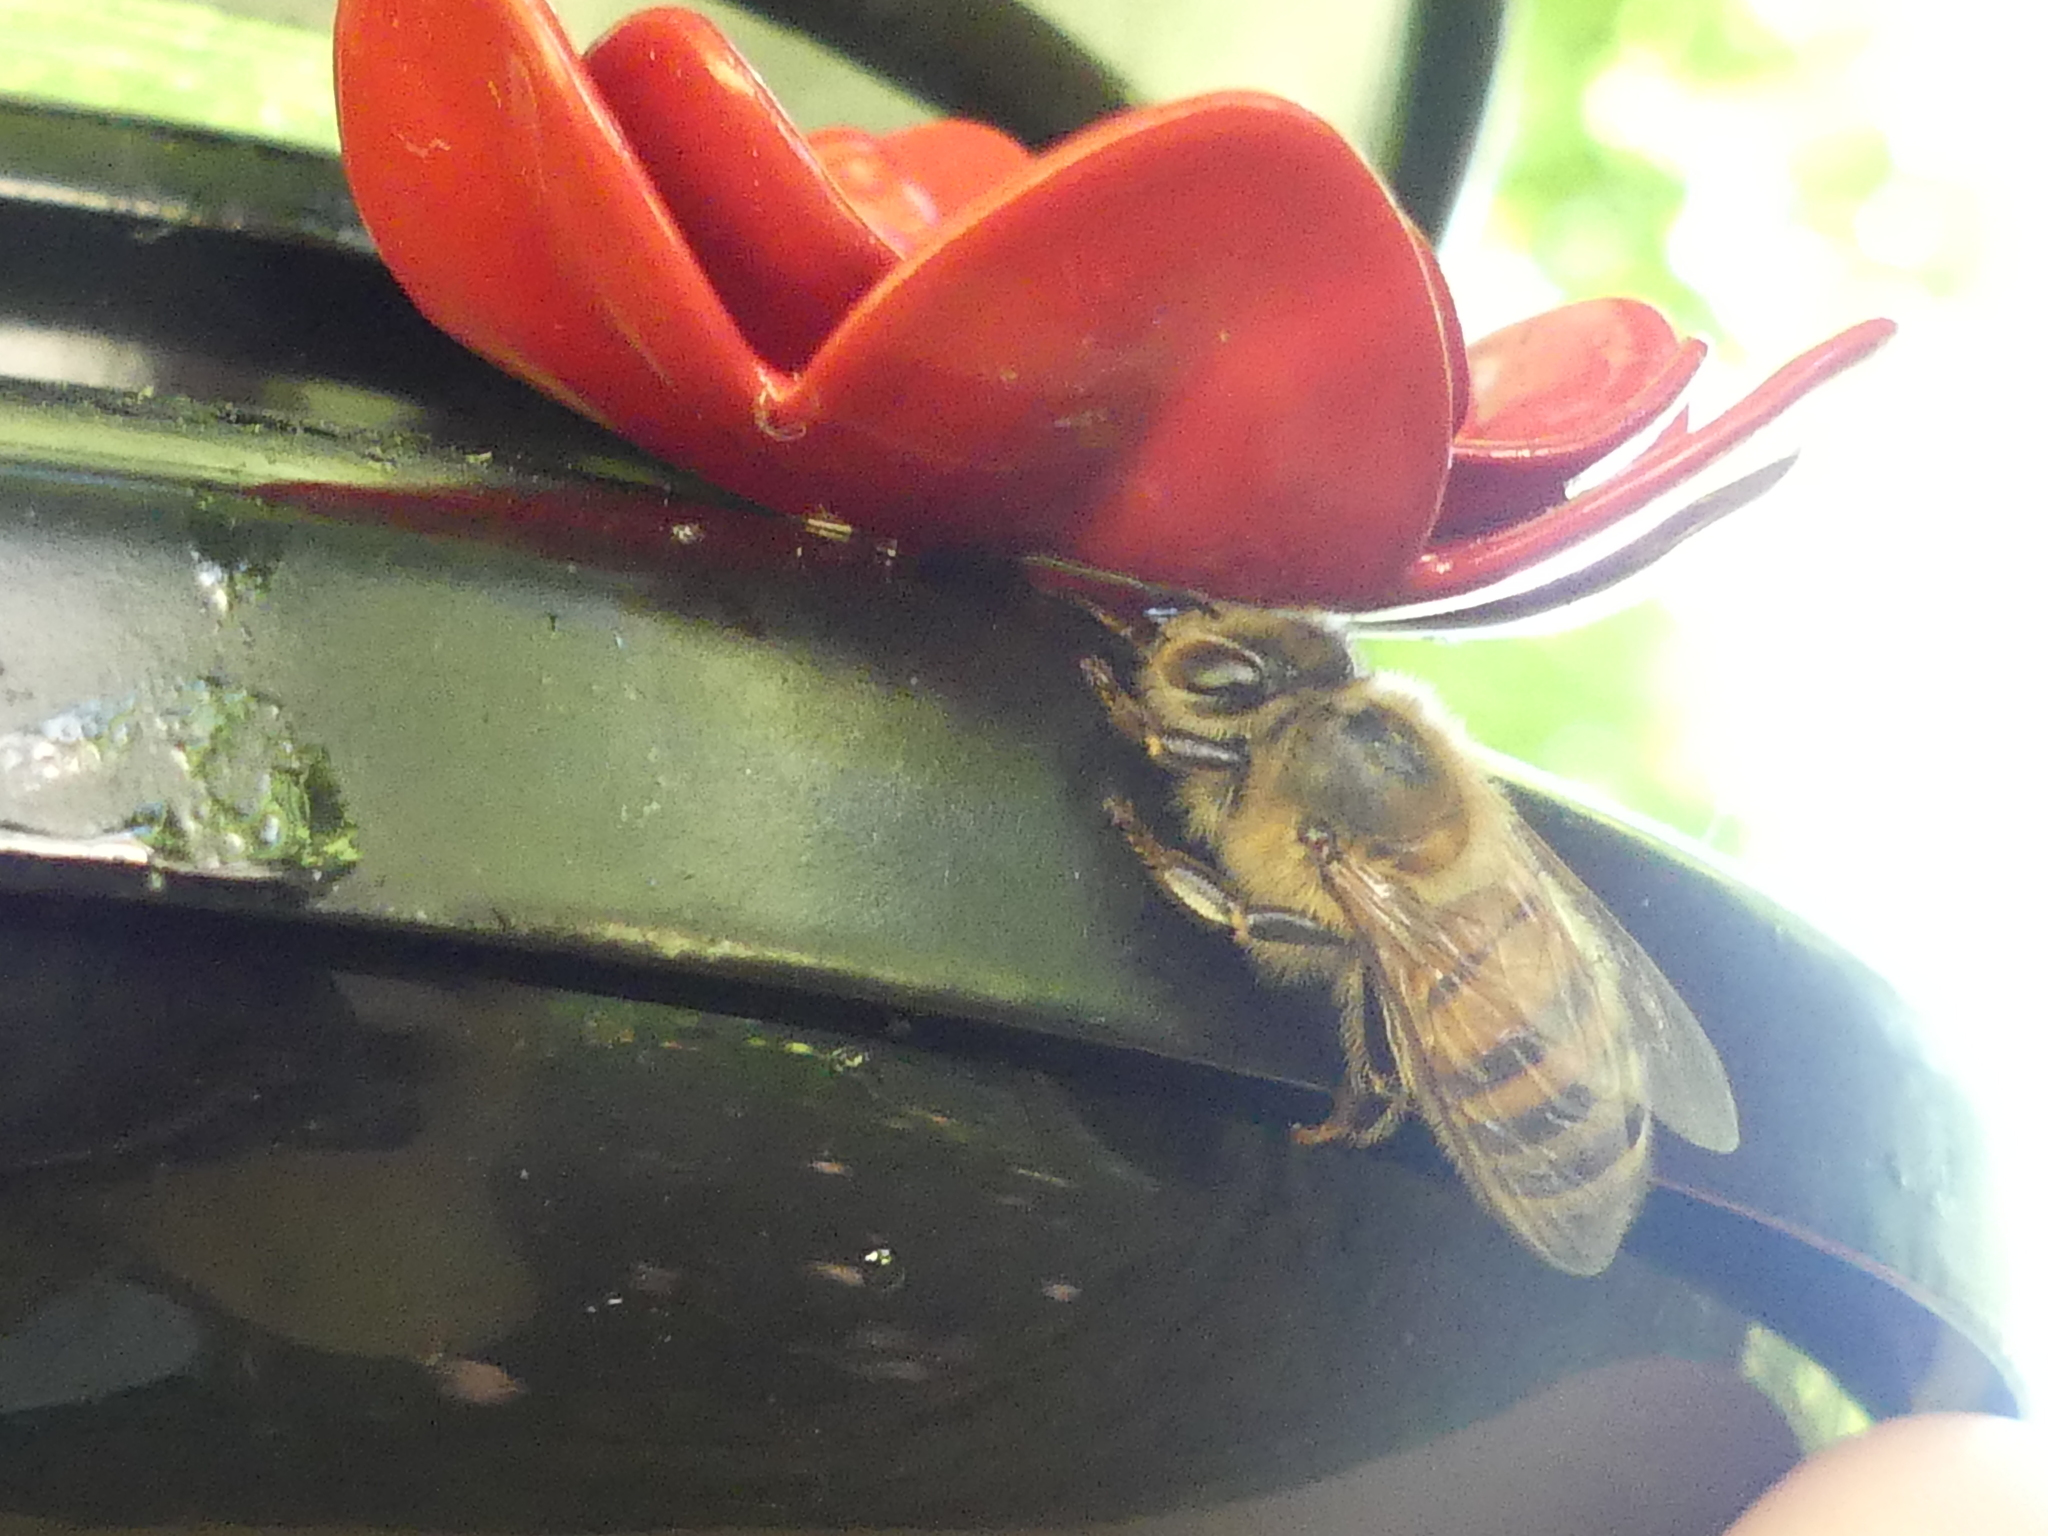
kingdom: Animalia
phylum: Arthropoda
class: Insecta
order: Hymenoptera
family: Apidae
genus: Apis
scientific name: Apis mellifera
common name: Honey bee
